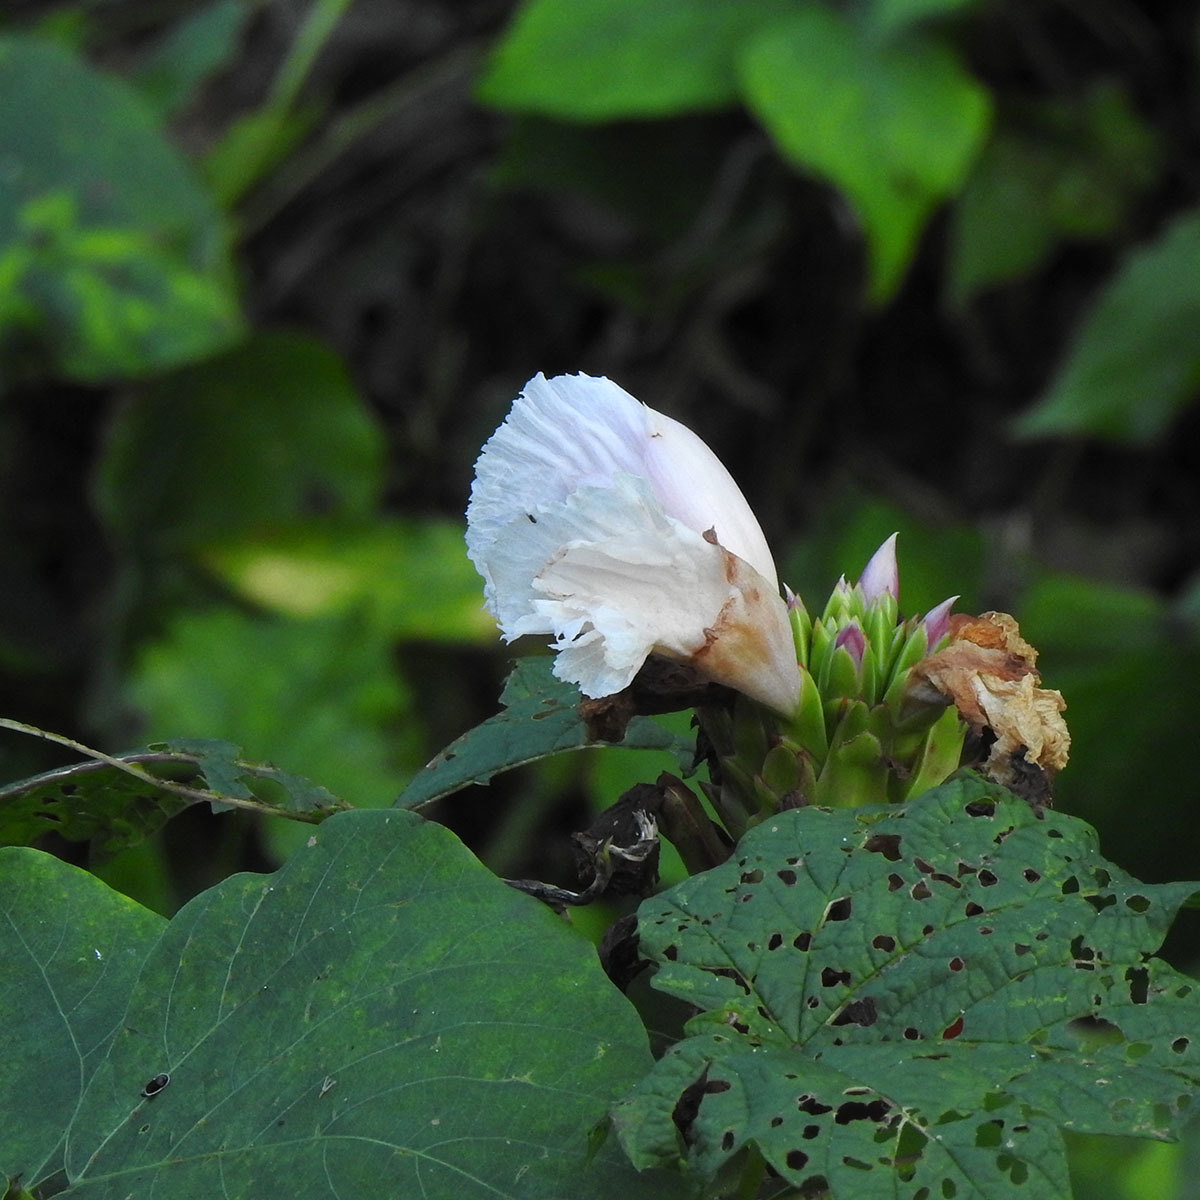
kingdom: Plantae
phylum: Tracheophyta
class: Liliopsida
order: Zingiberales
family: Costaceae
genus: Hellenia
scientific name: Hellenia speciosa
